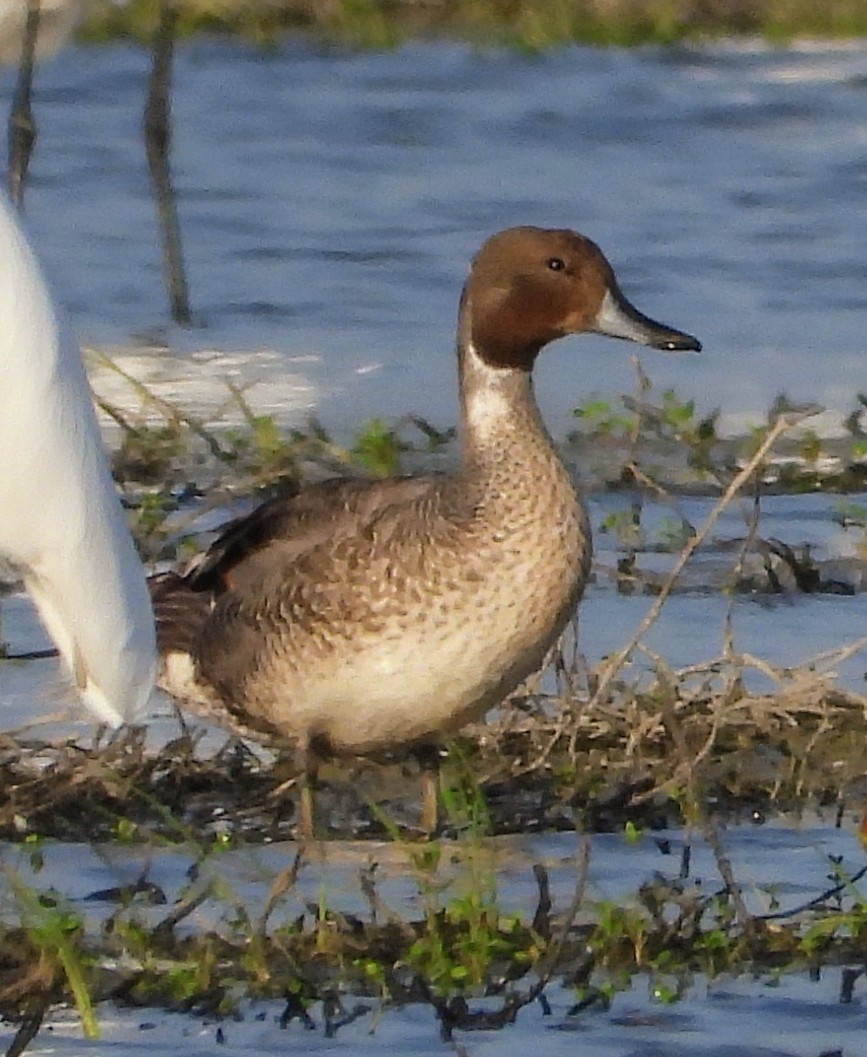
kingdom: Animalia
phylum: Chordata
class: Aves
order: Anseriformes
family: Anatidae
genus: Anas
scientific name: Anas acuta
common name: Northern pintail
